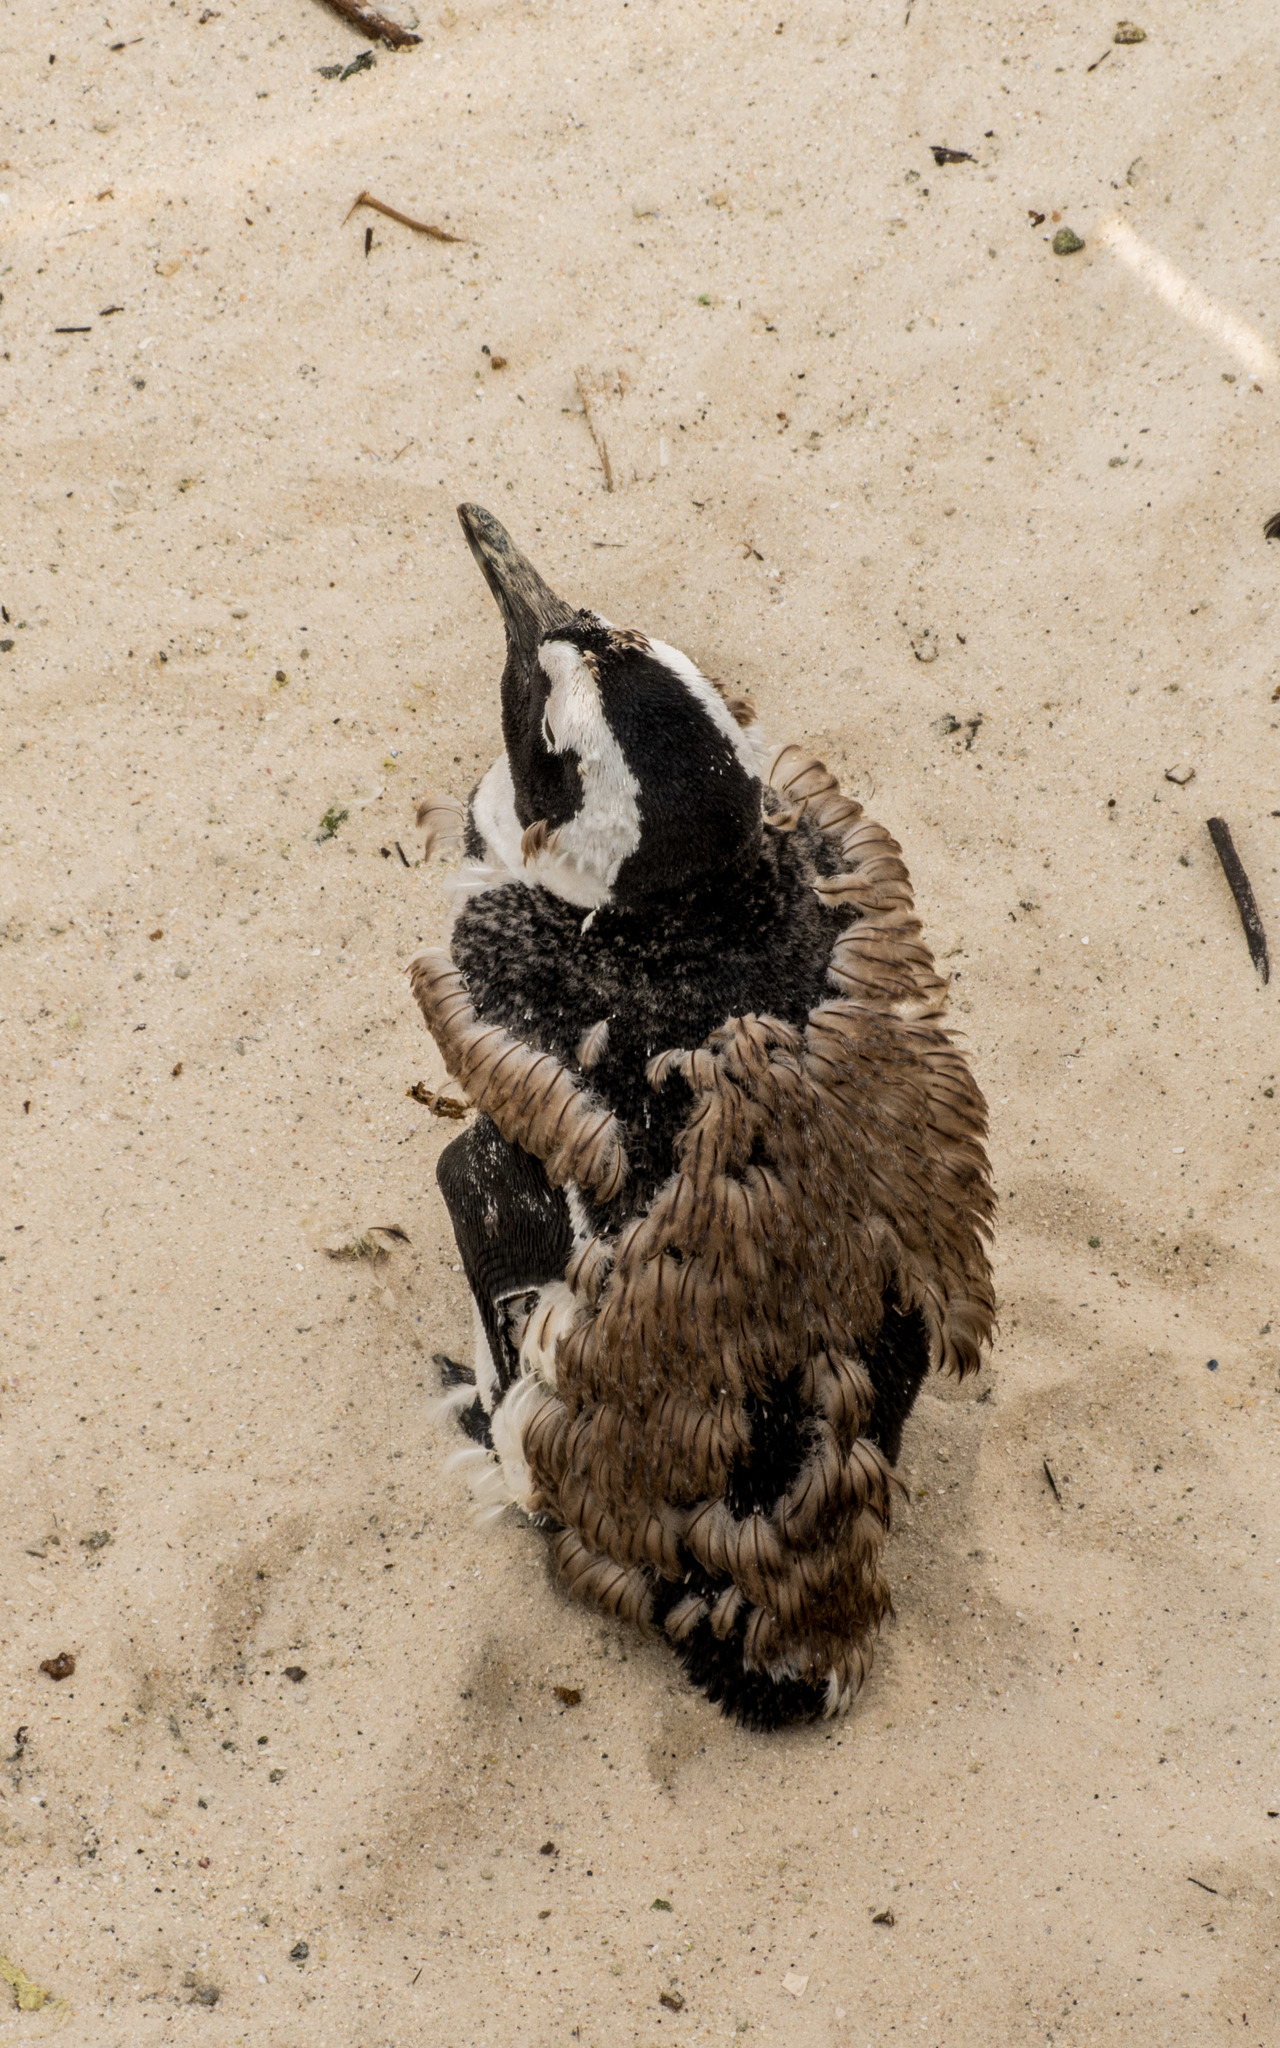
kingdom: Animalia
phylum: Chordata
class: Aves
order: Sphenisciformes
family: Spheniscidae
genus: Spheniscus
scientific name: Spheniscus demersus
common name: African penguin
